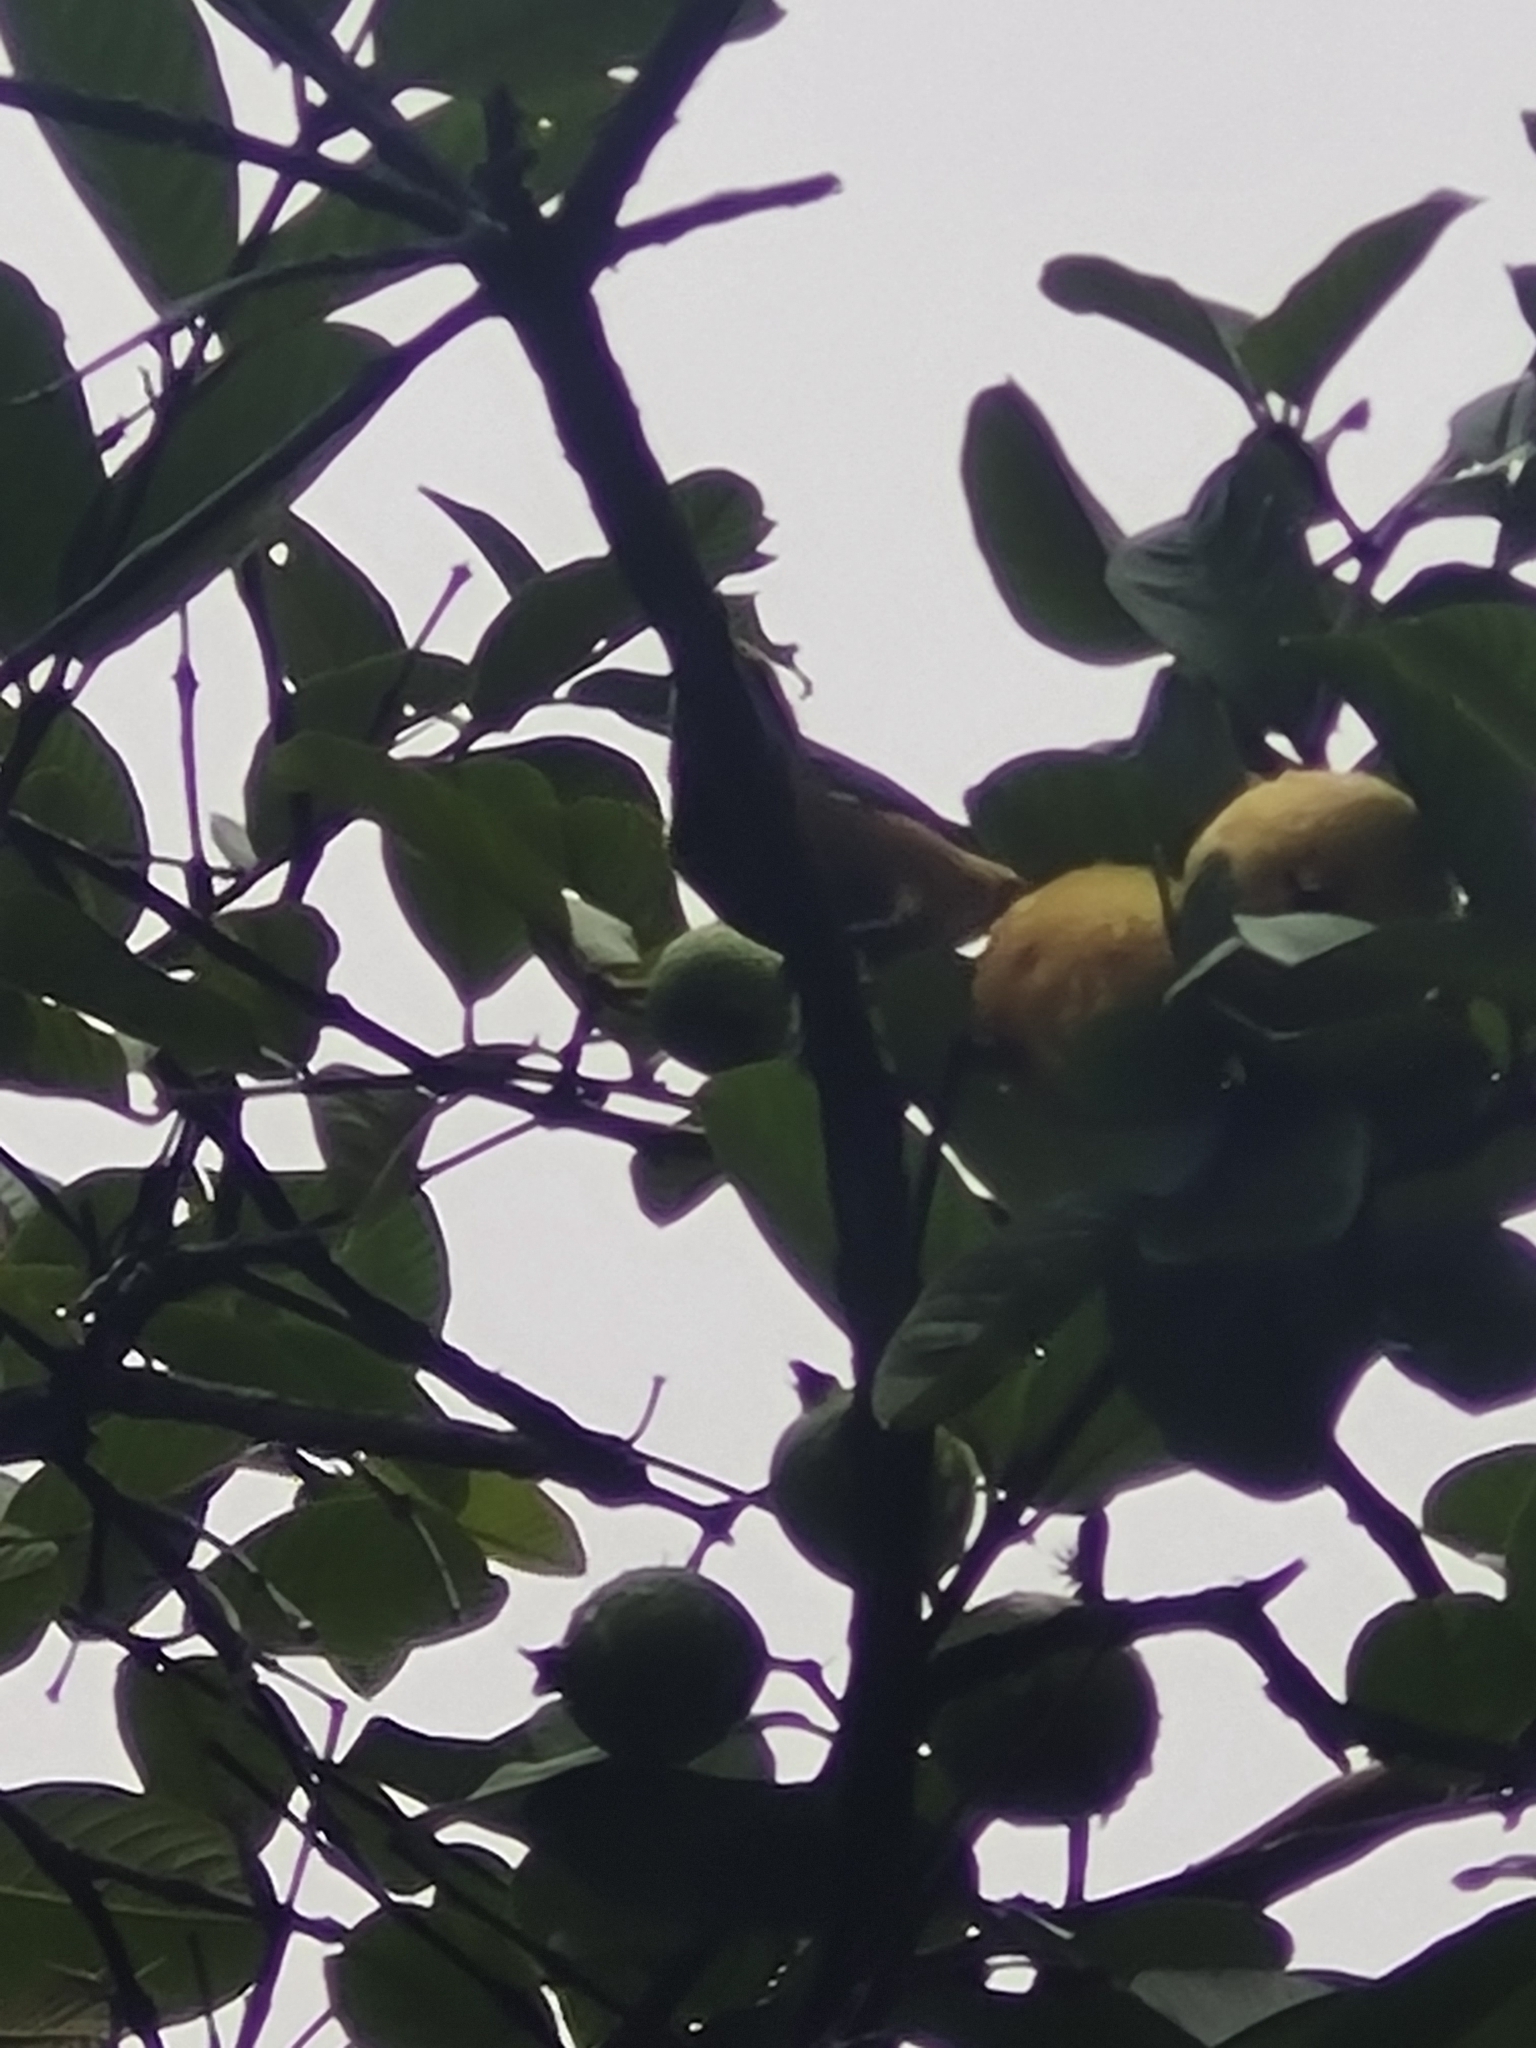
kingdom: Animalia
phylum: Chordata
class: Aves
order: Passeriformes
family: Thraupidae
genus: Stilpnia
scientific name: Stilpnia cayana
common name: Burnished-buff tanager
